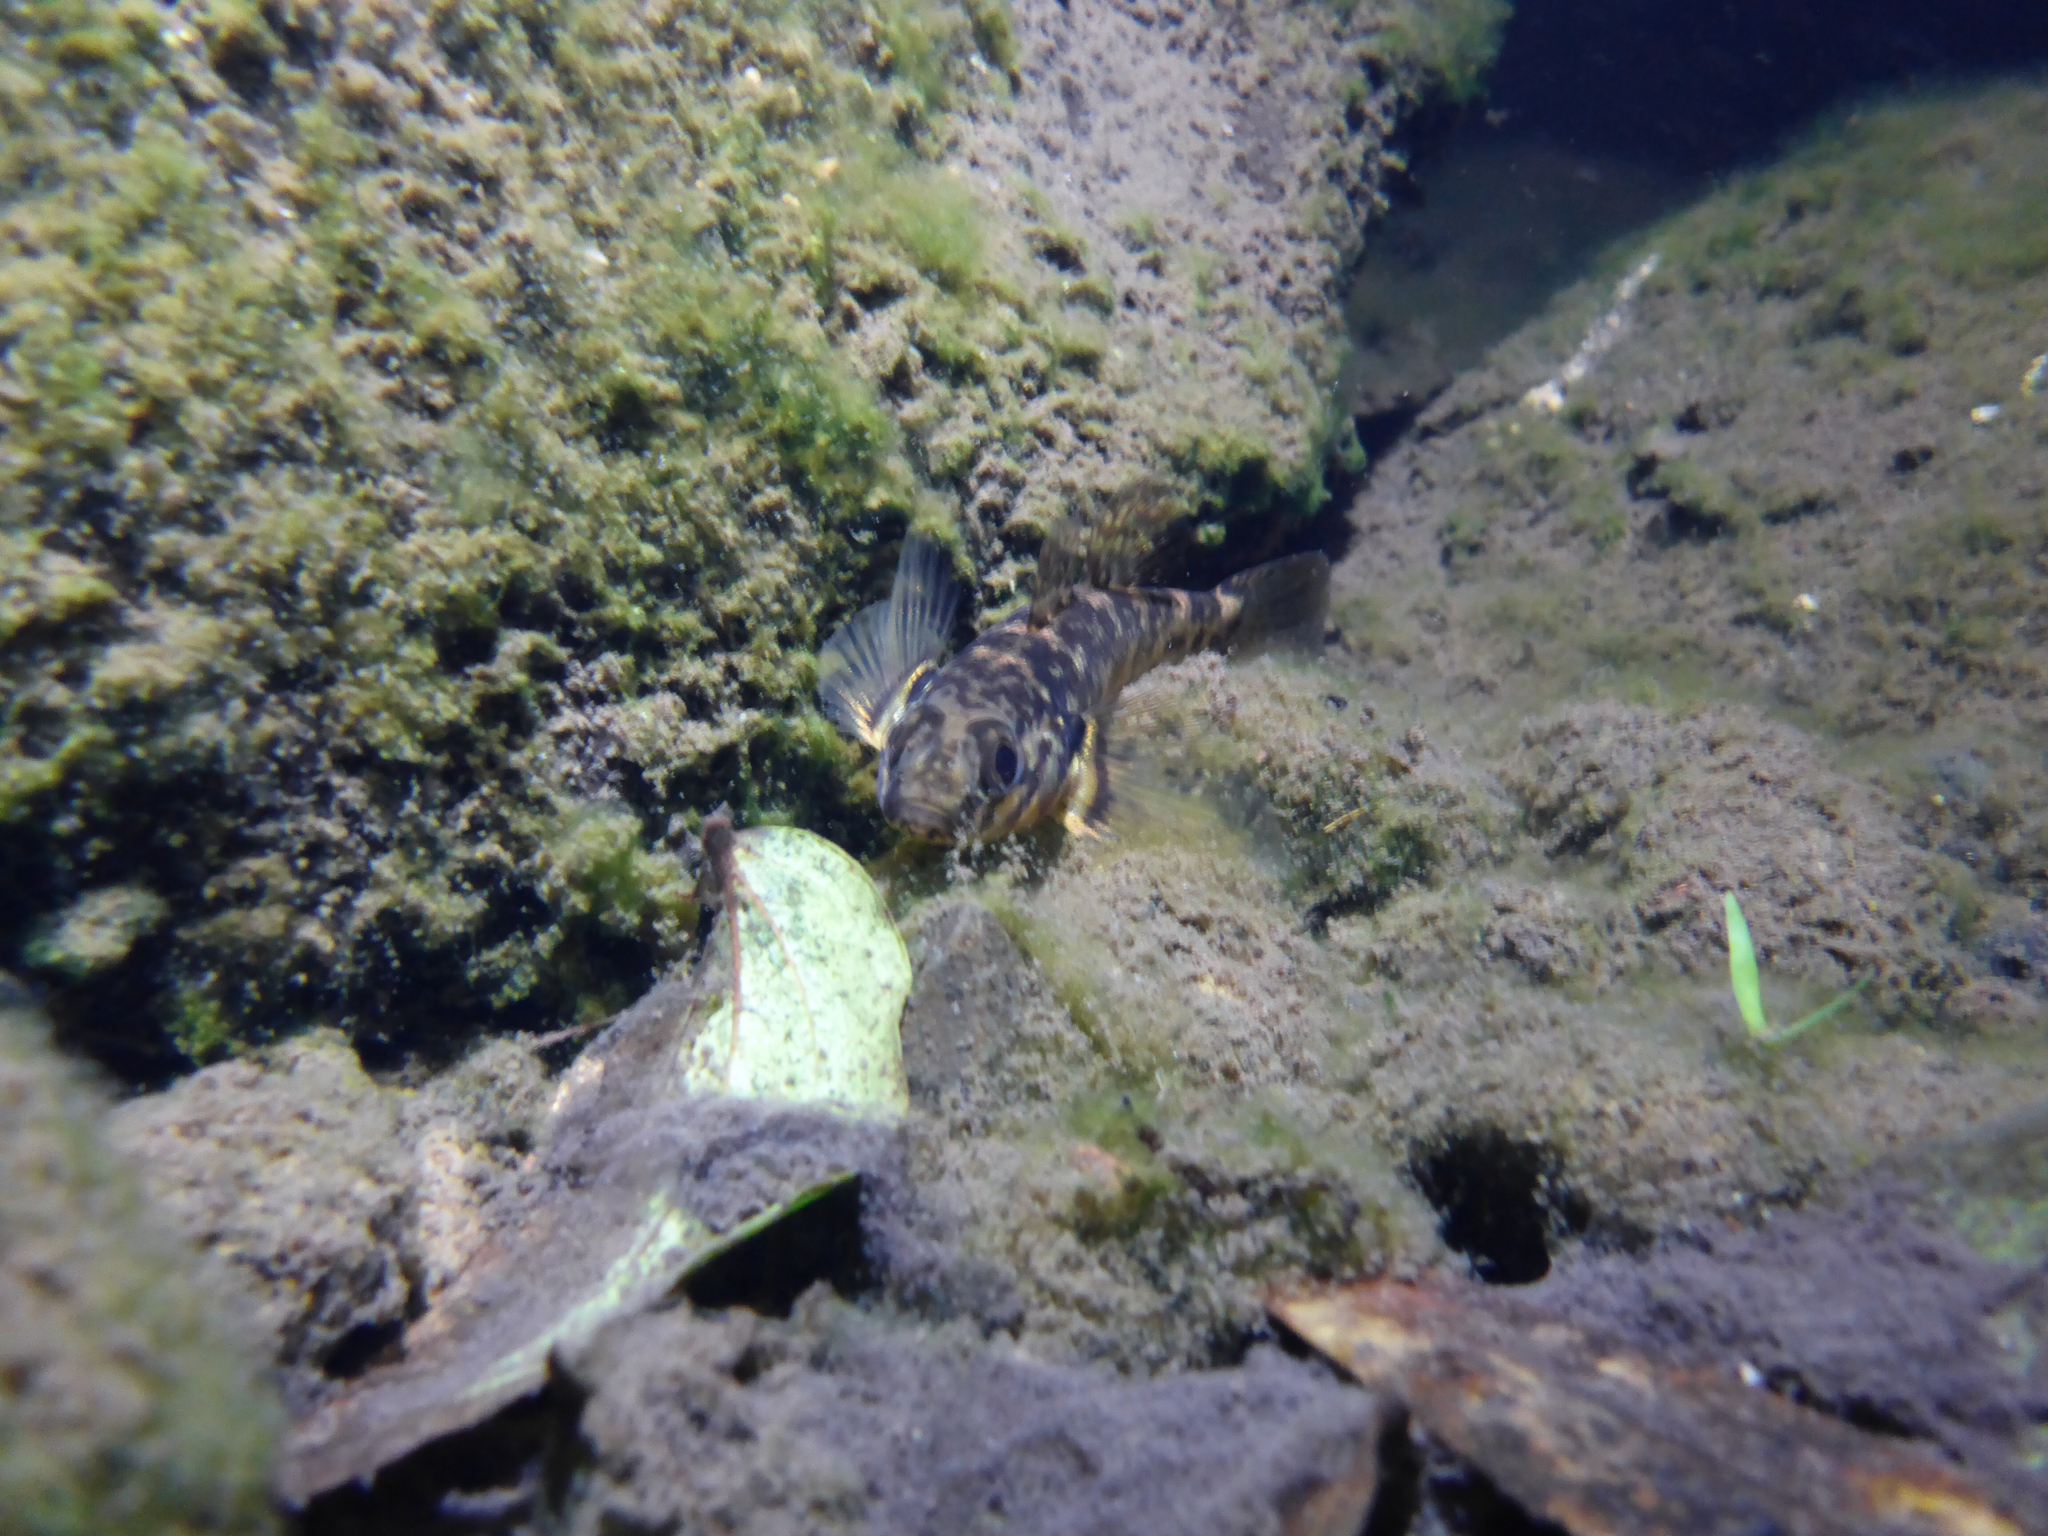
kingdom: Animalia
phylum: Chordata
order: Perciformes
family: Eleotridae
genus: Gobiomorphus
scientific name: Gobiomorphus huttoni
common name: Redfin bully
